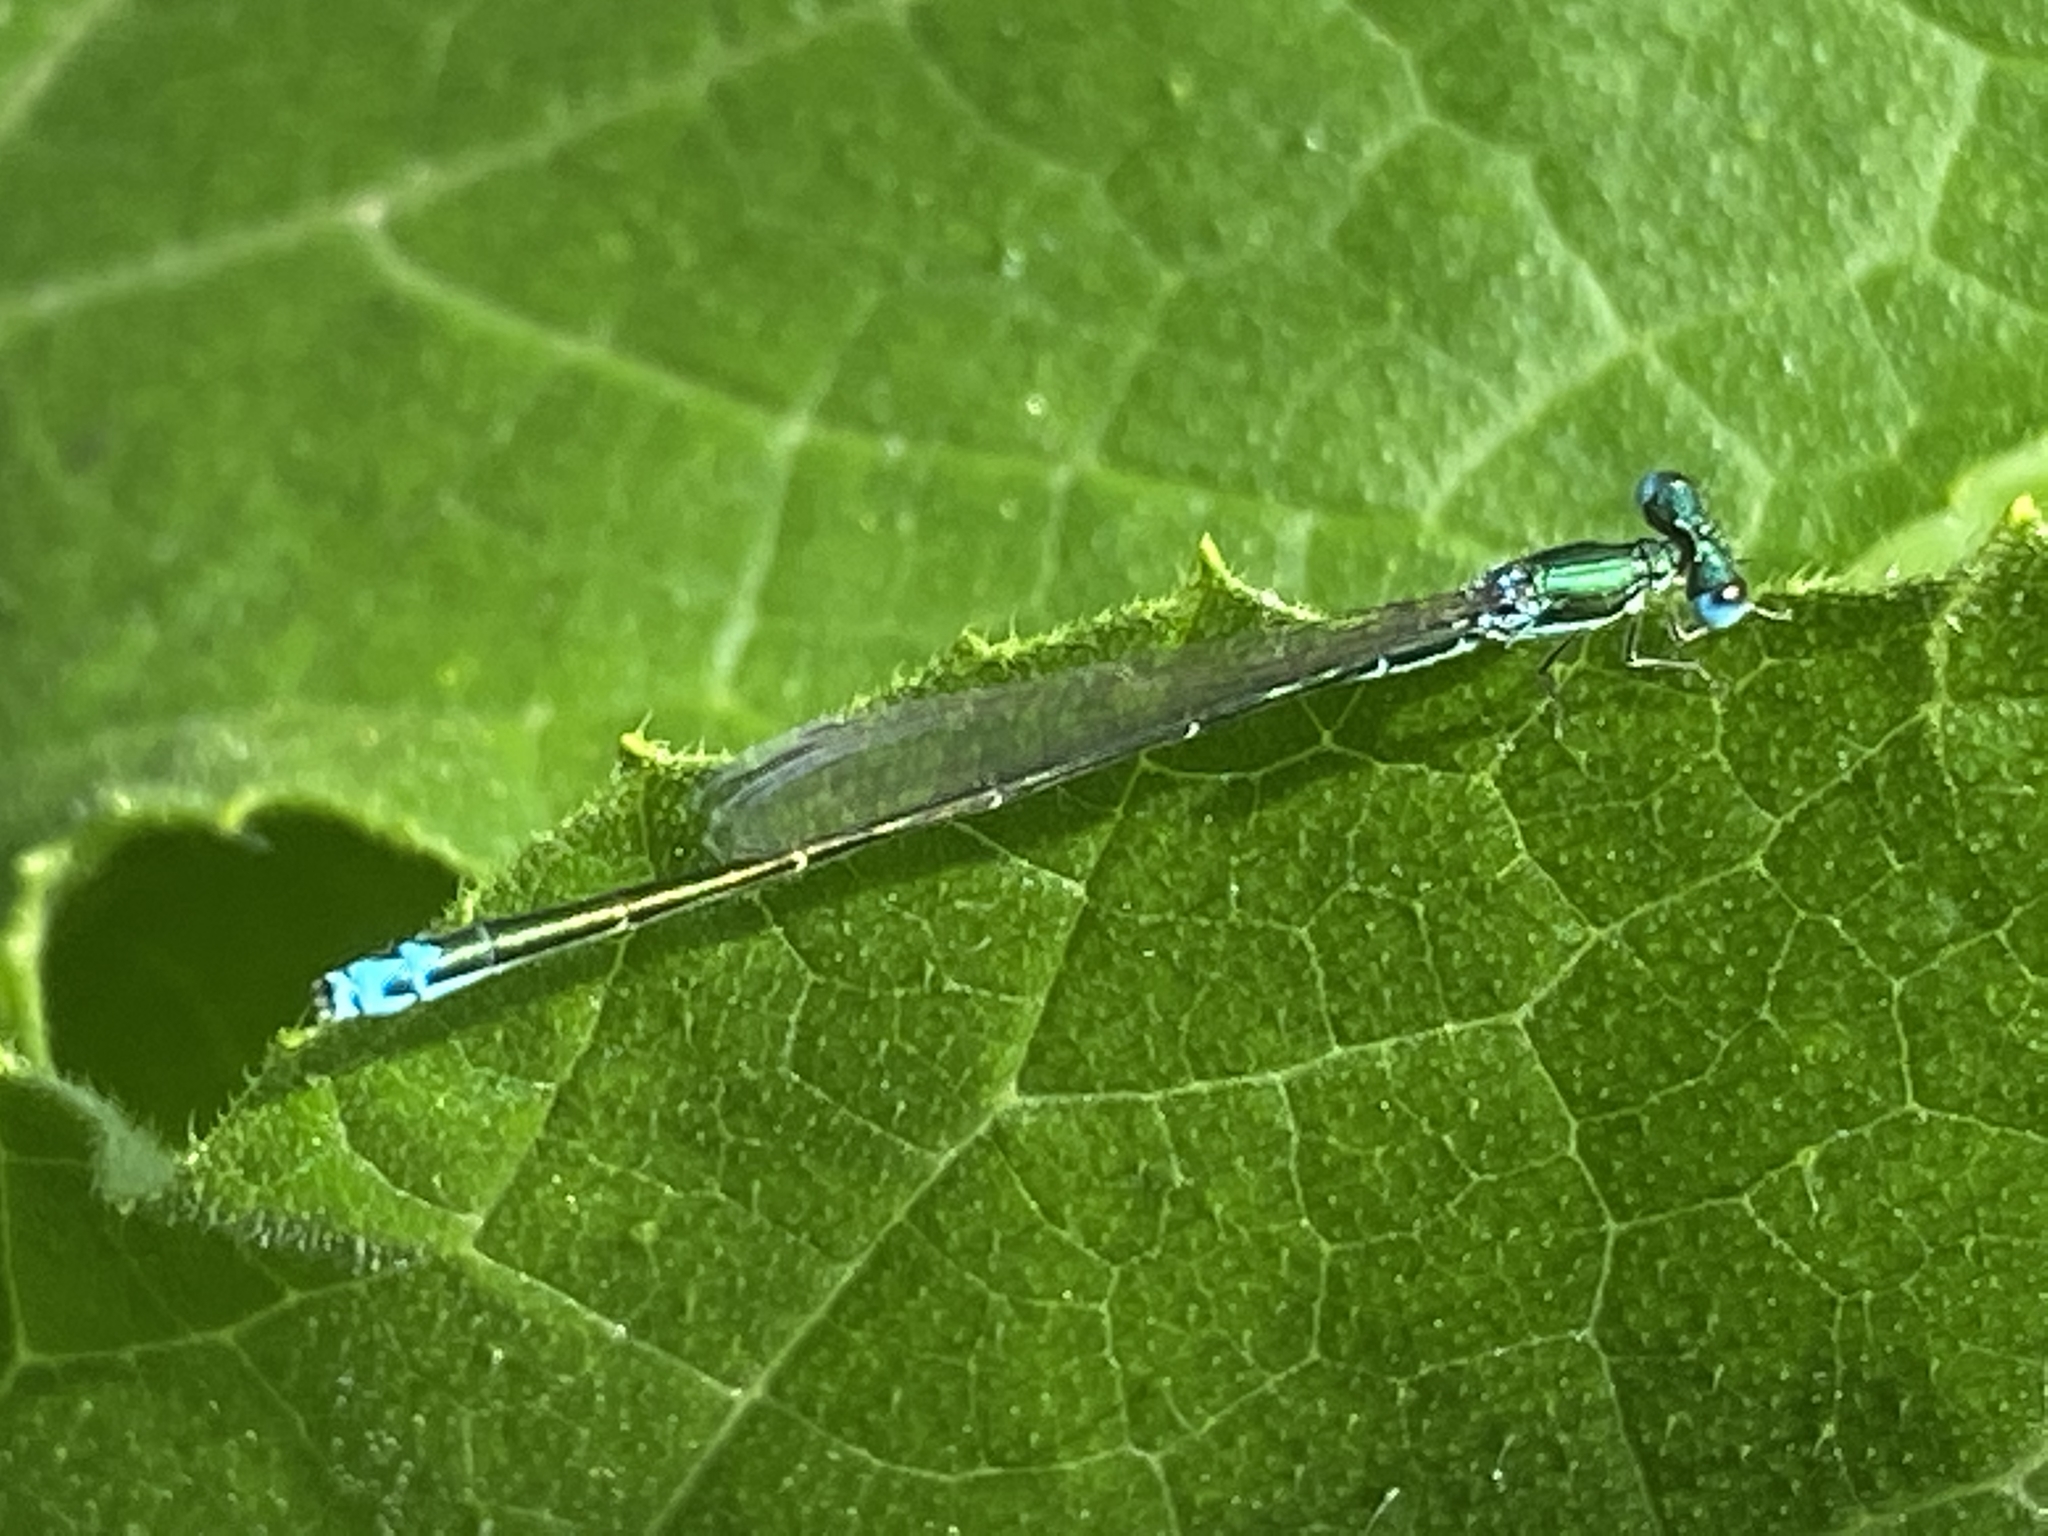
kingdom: Animalia
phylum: Arthropoda
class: Insecta
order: Odonata
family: Coenagrionidae
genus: Nehalennia
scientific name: Nehalennia irene
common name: Sedge sprite
